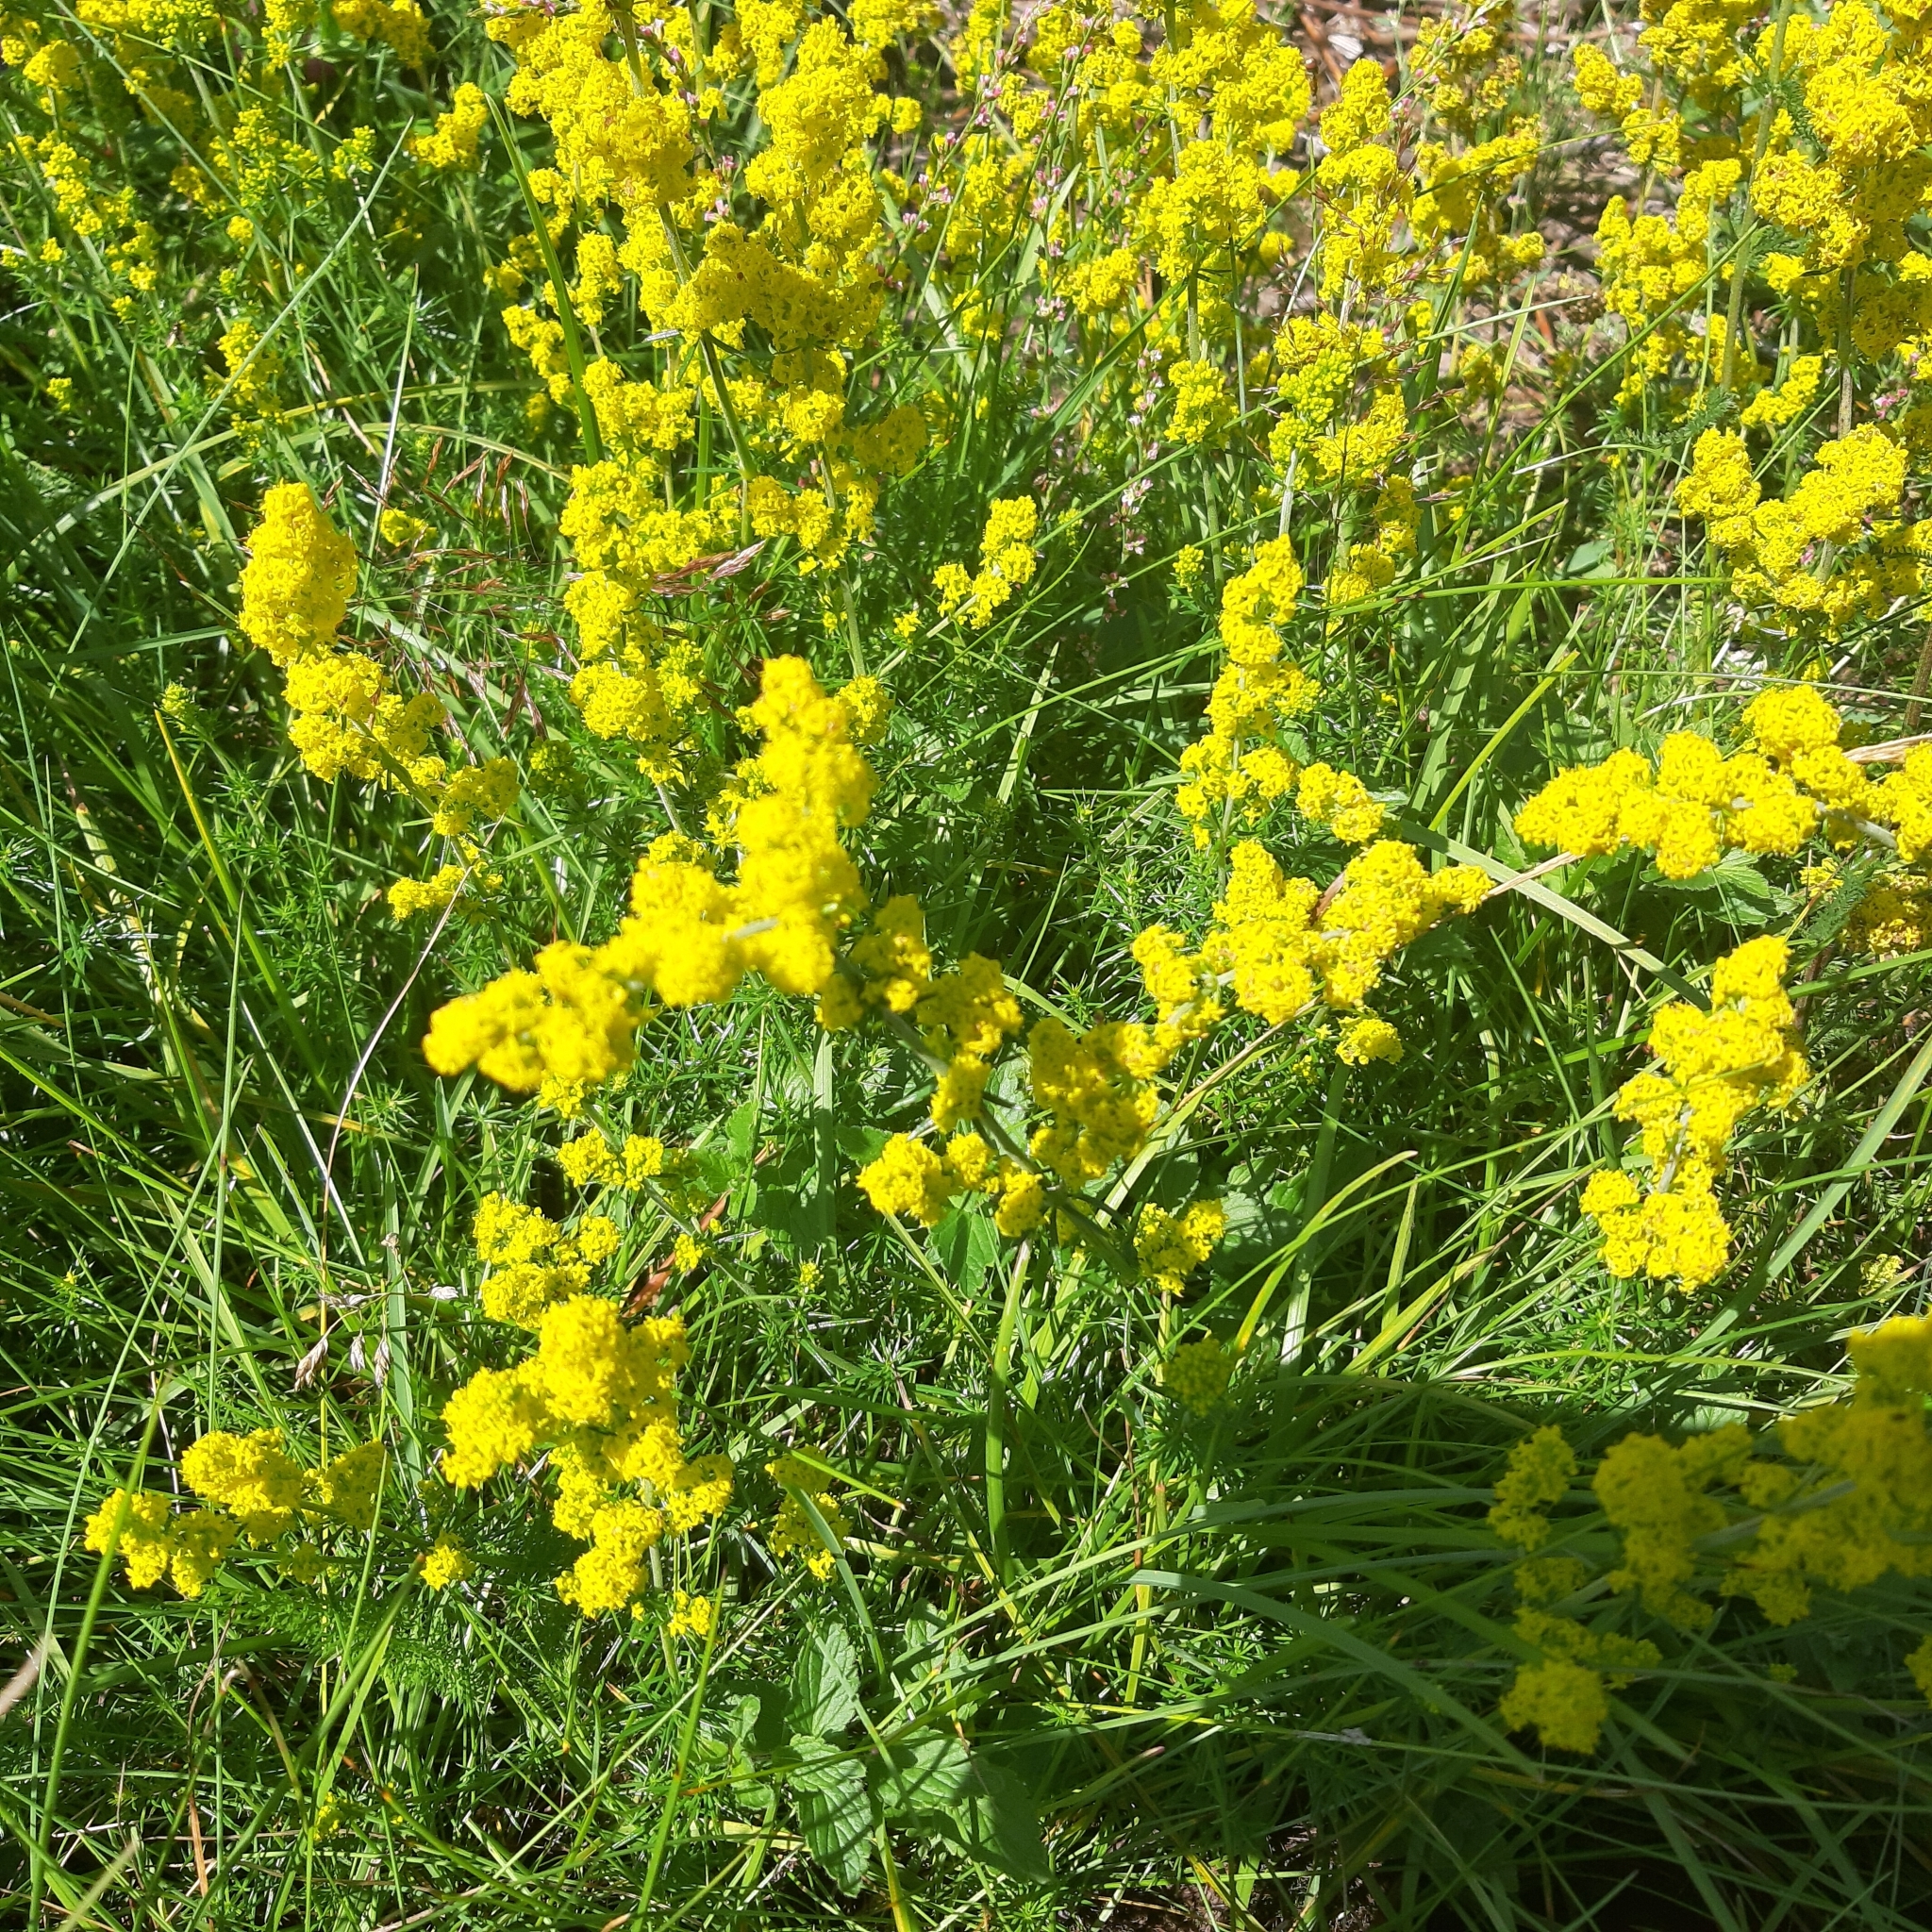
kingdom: Plantae
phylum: Tracheophyta
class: Magnoliopsida
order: Gentianales
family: Rubiaceae
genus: Galium
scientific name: Galium verum
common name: Lady's bedstraw
